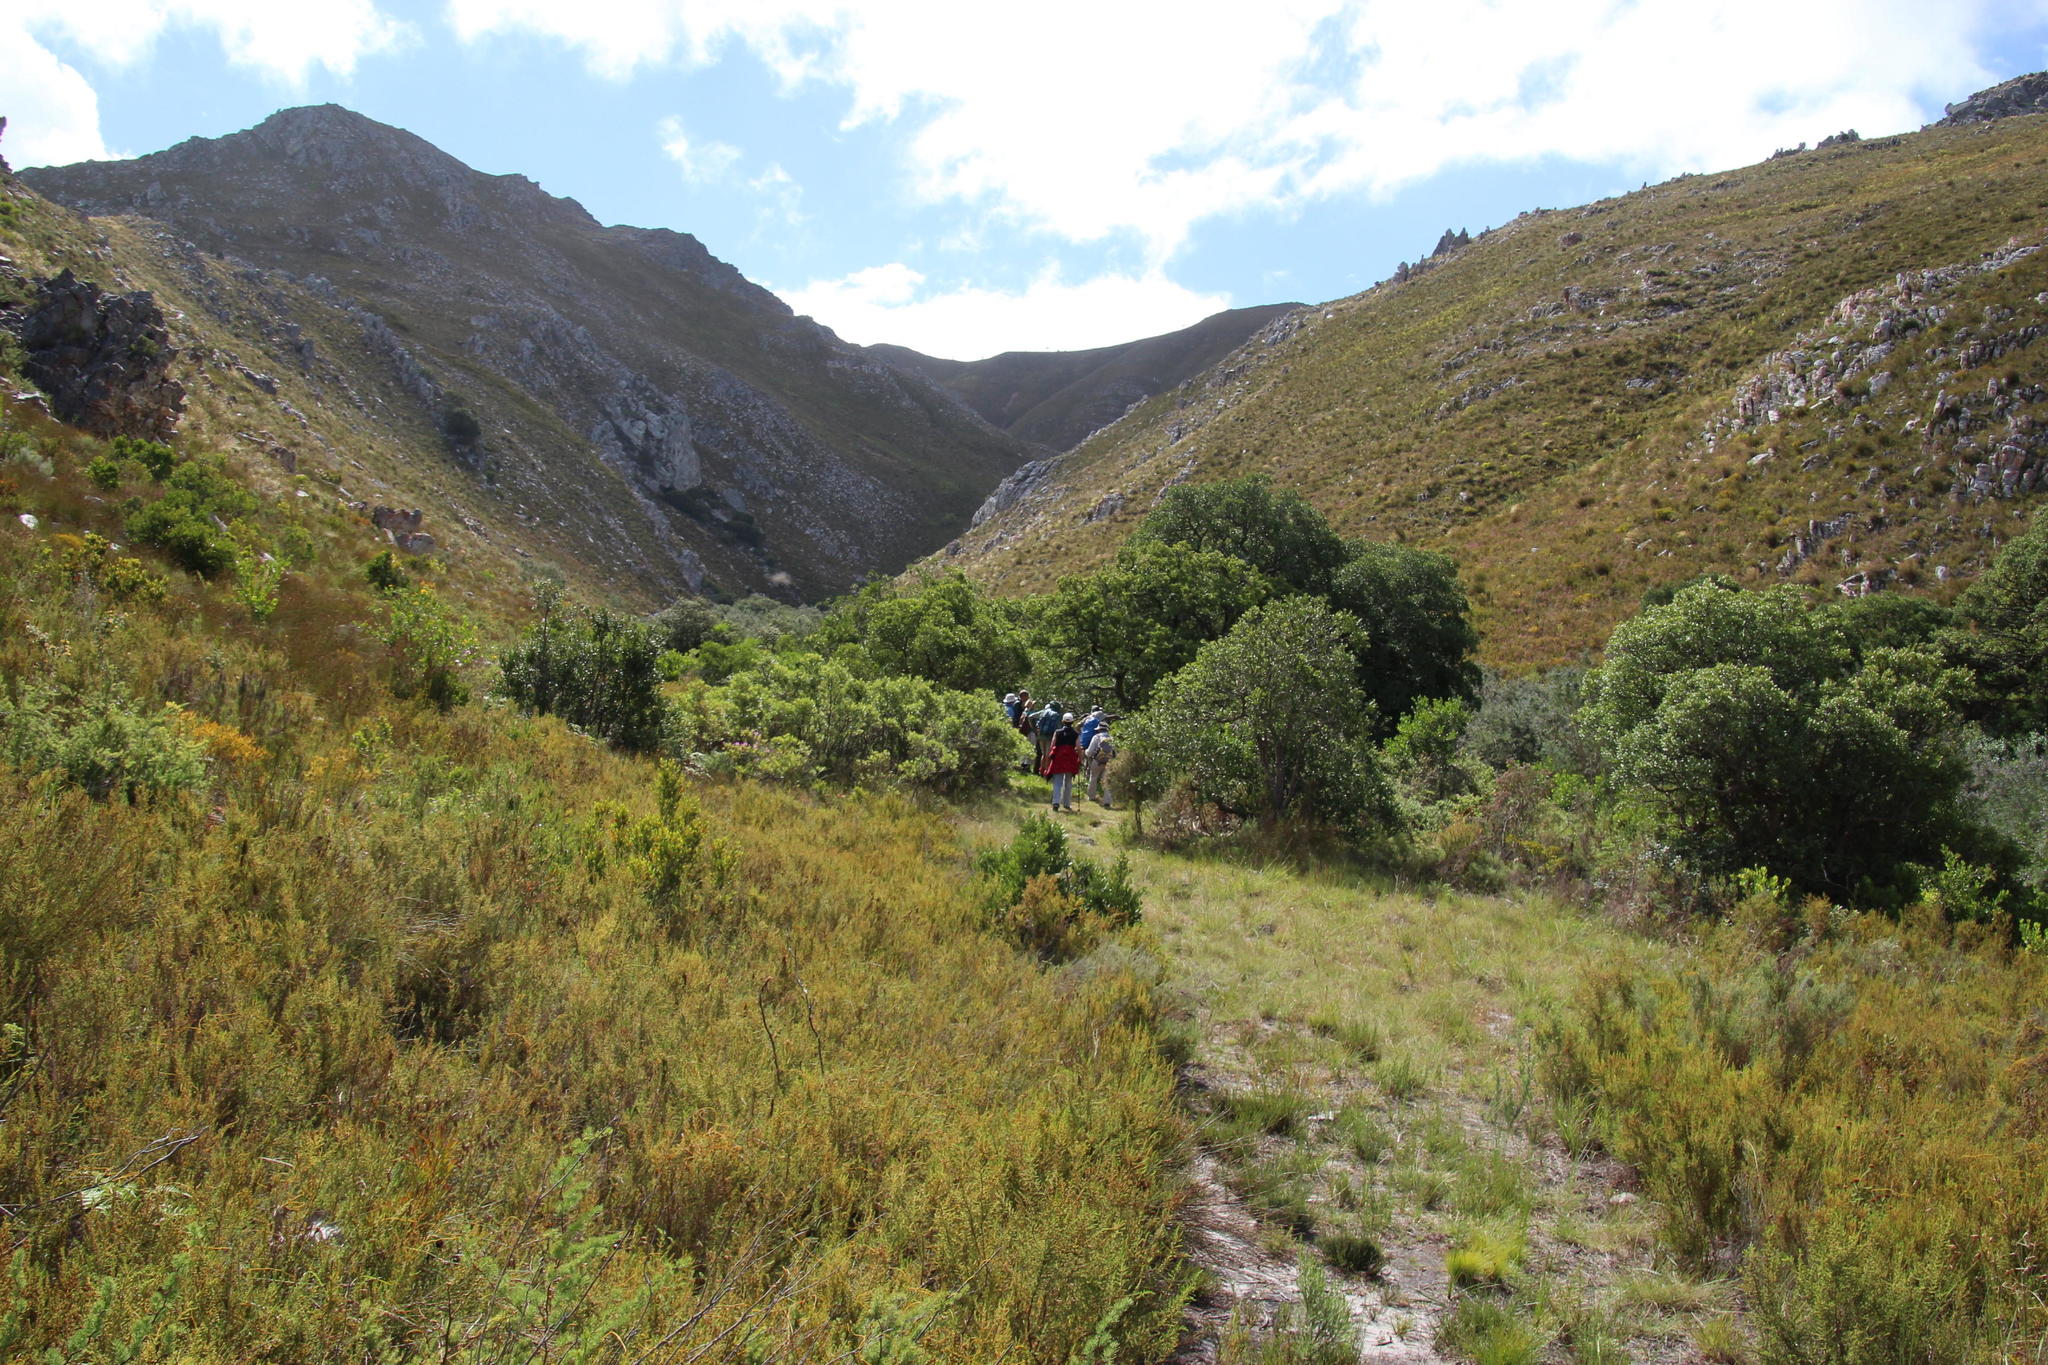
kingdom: Plantae
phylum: Tracheophyta
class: Magnoliopsida
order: Celastrales
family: Celastraceae
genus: Gymnosporia
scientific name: Gymnosporia laurina
